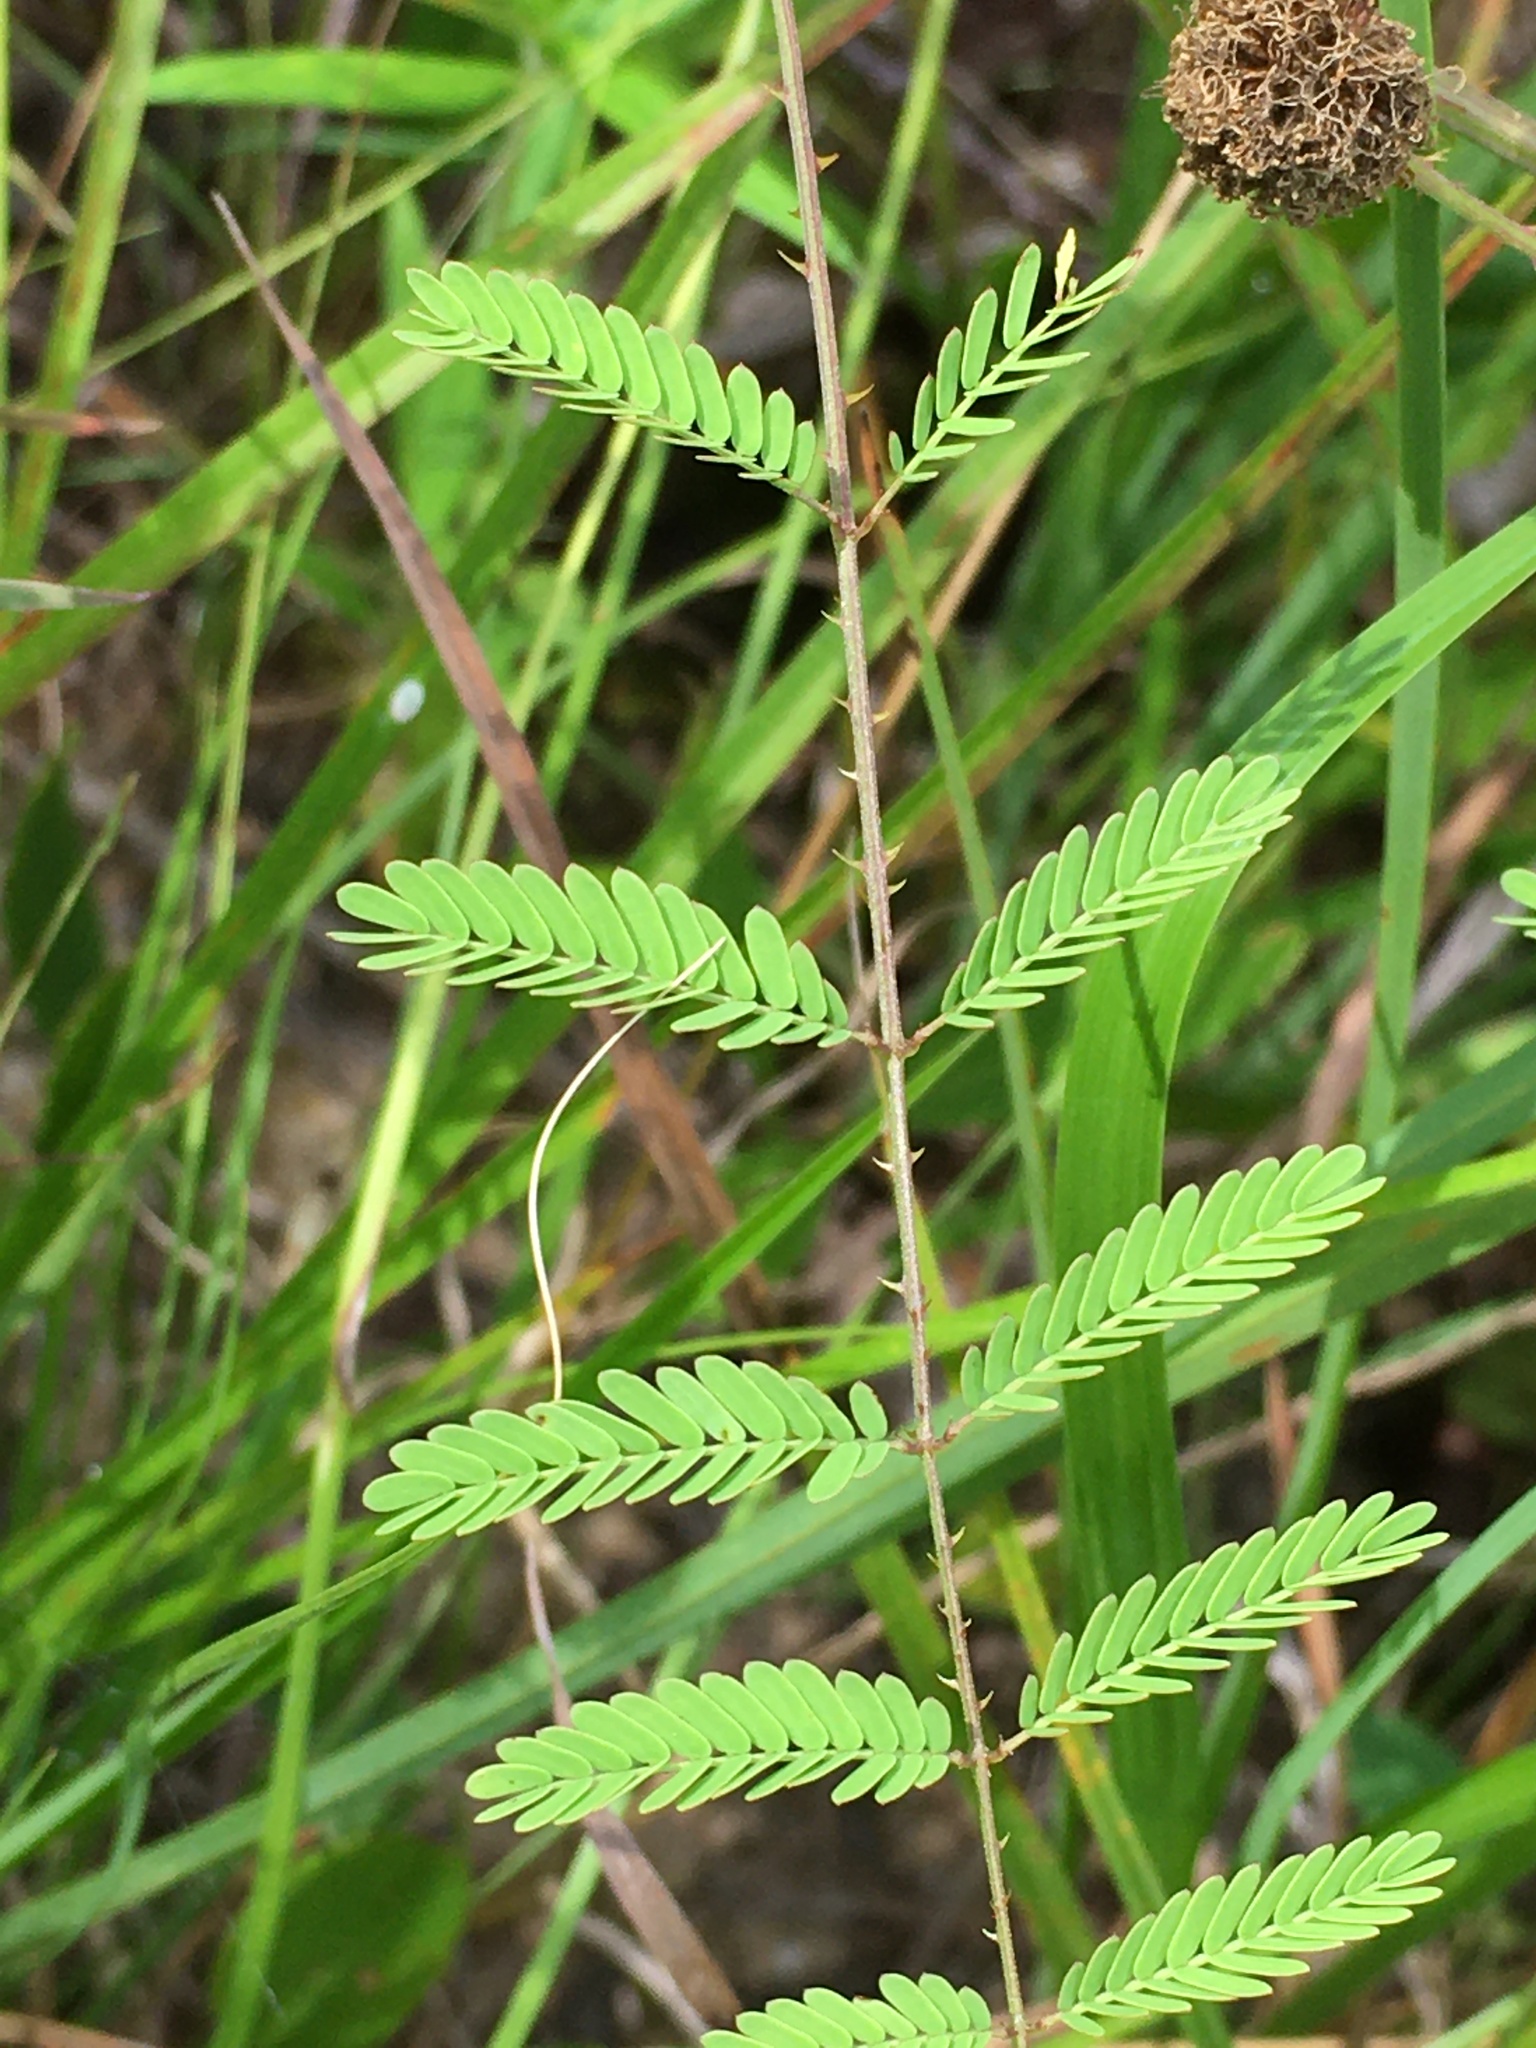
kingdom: Plantae
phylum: Tracheophyta
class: Magnoliopsida
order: Fabales
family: Fabaceae
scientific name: Fabaceae
